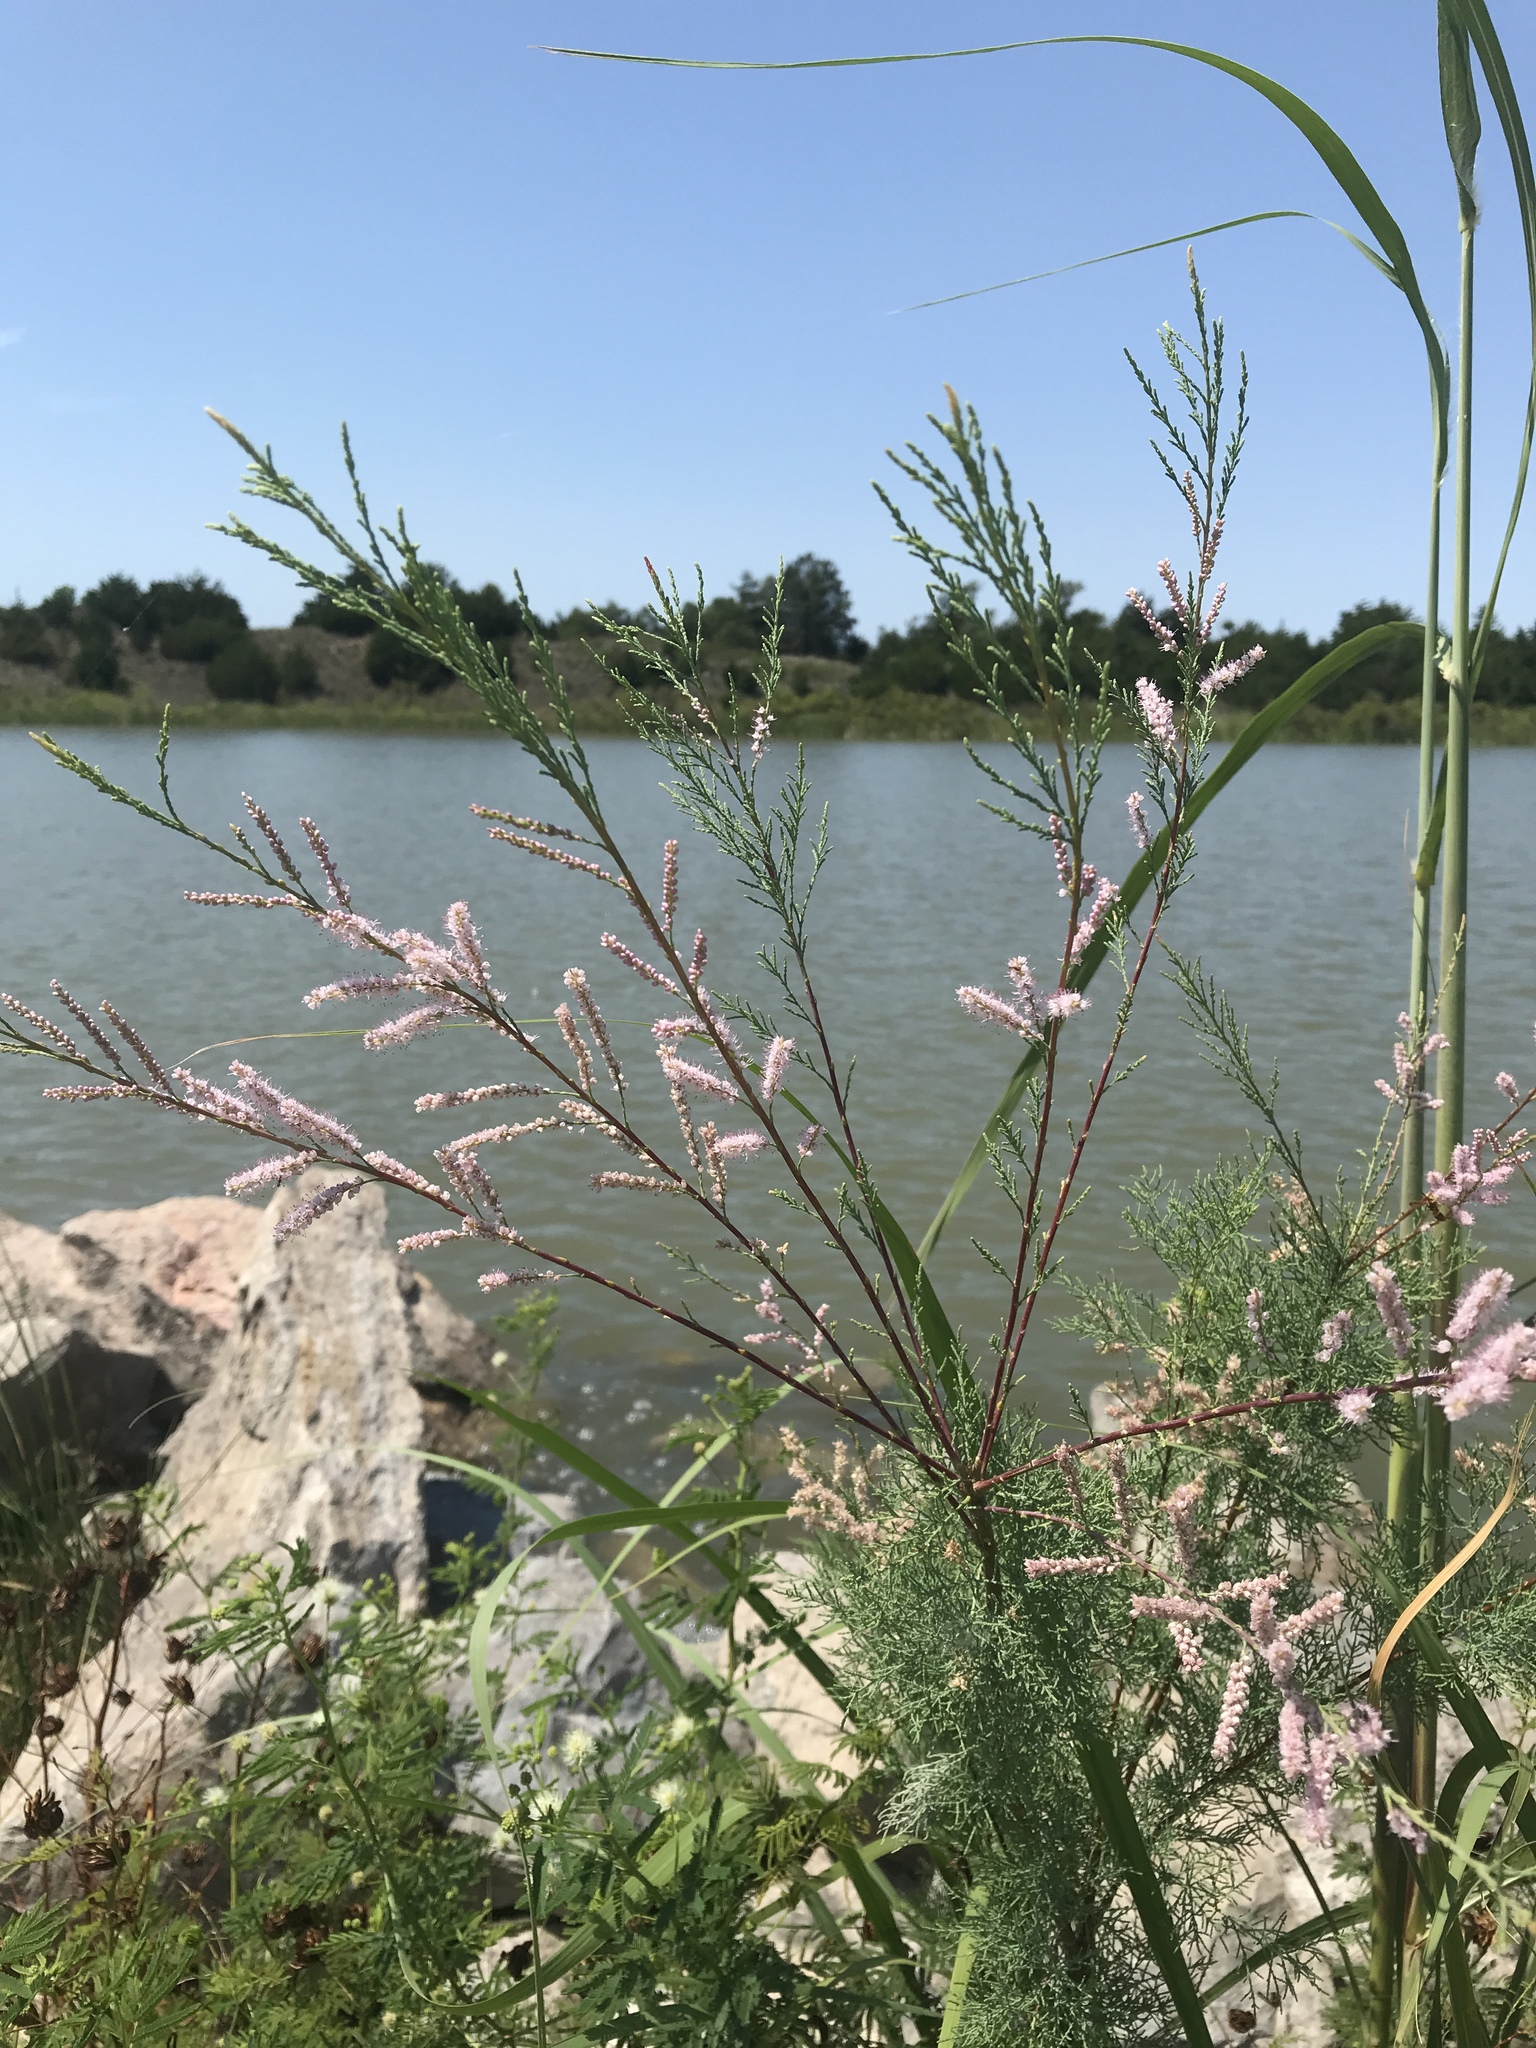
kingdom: Plantae
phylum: Tracheophyta
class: Magnoliopsida
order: Caryophyllales
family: Tamaricaceae
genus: Tamarix
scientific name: Tamarix
